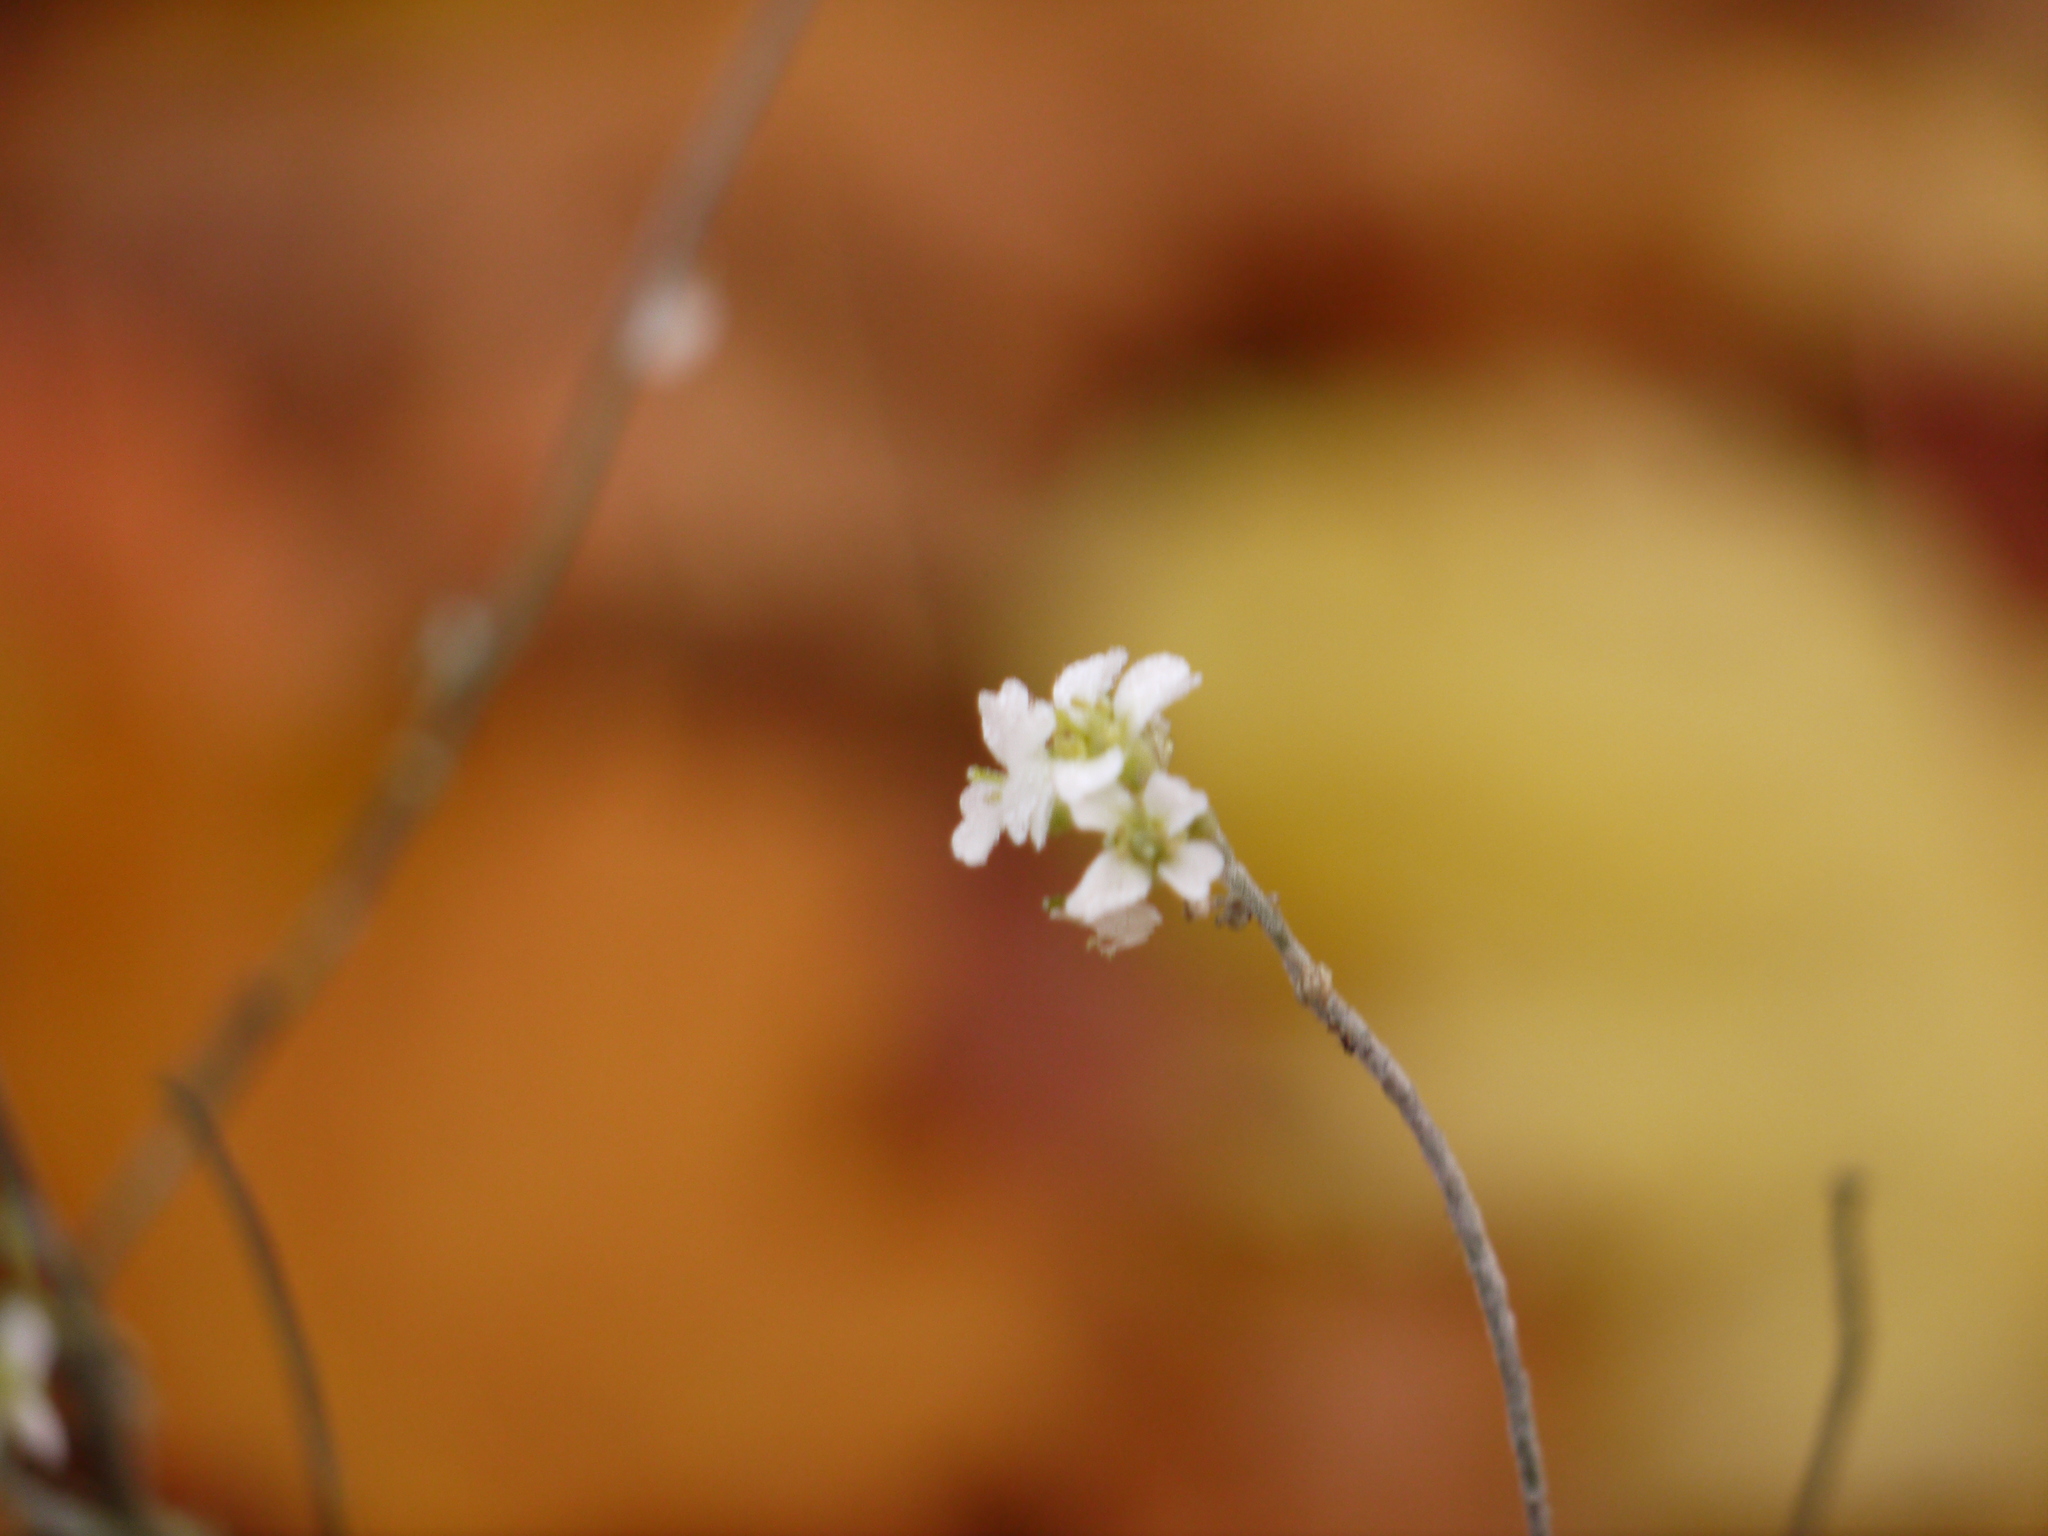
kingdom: Plantae
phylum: Tracheophyta
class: Magnoliopsida
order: Brassicales
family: Brassicaceae
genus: Berteroa
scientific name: Berteroa incana
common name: Hoary alison
